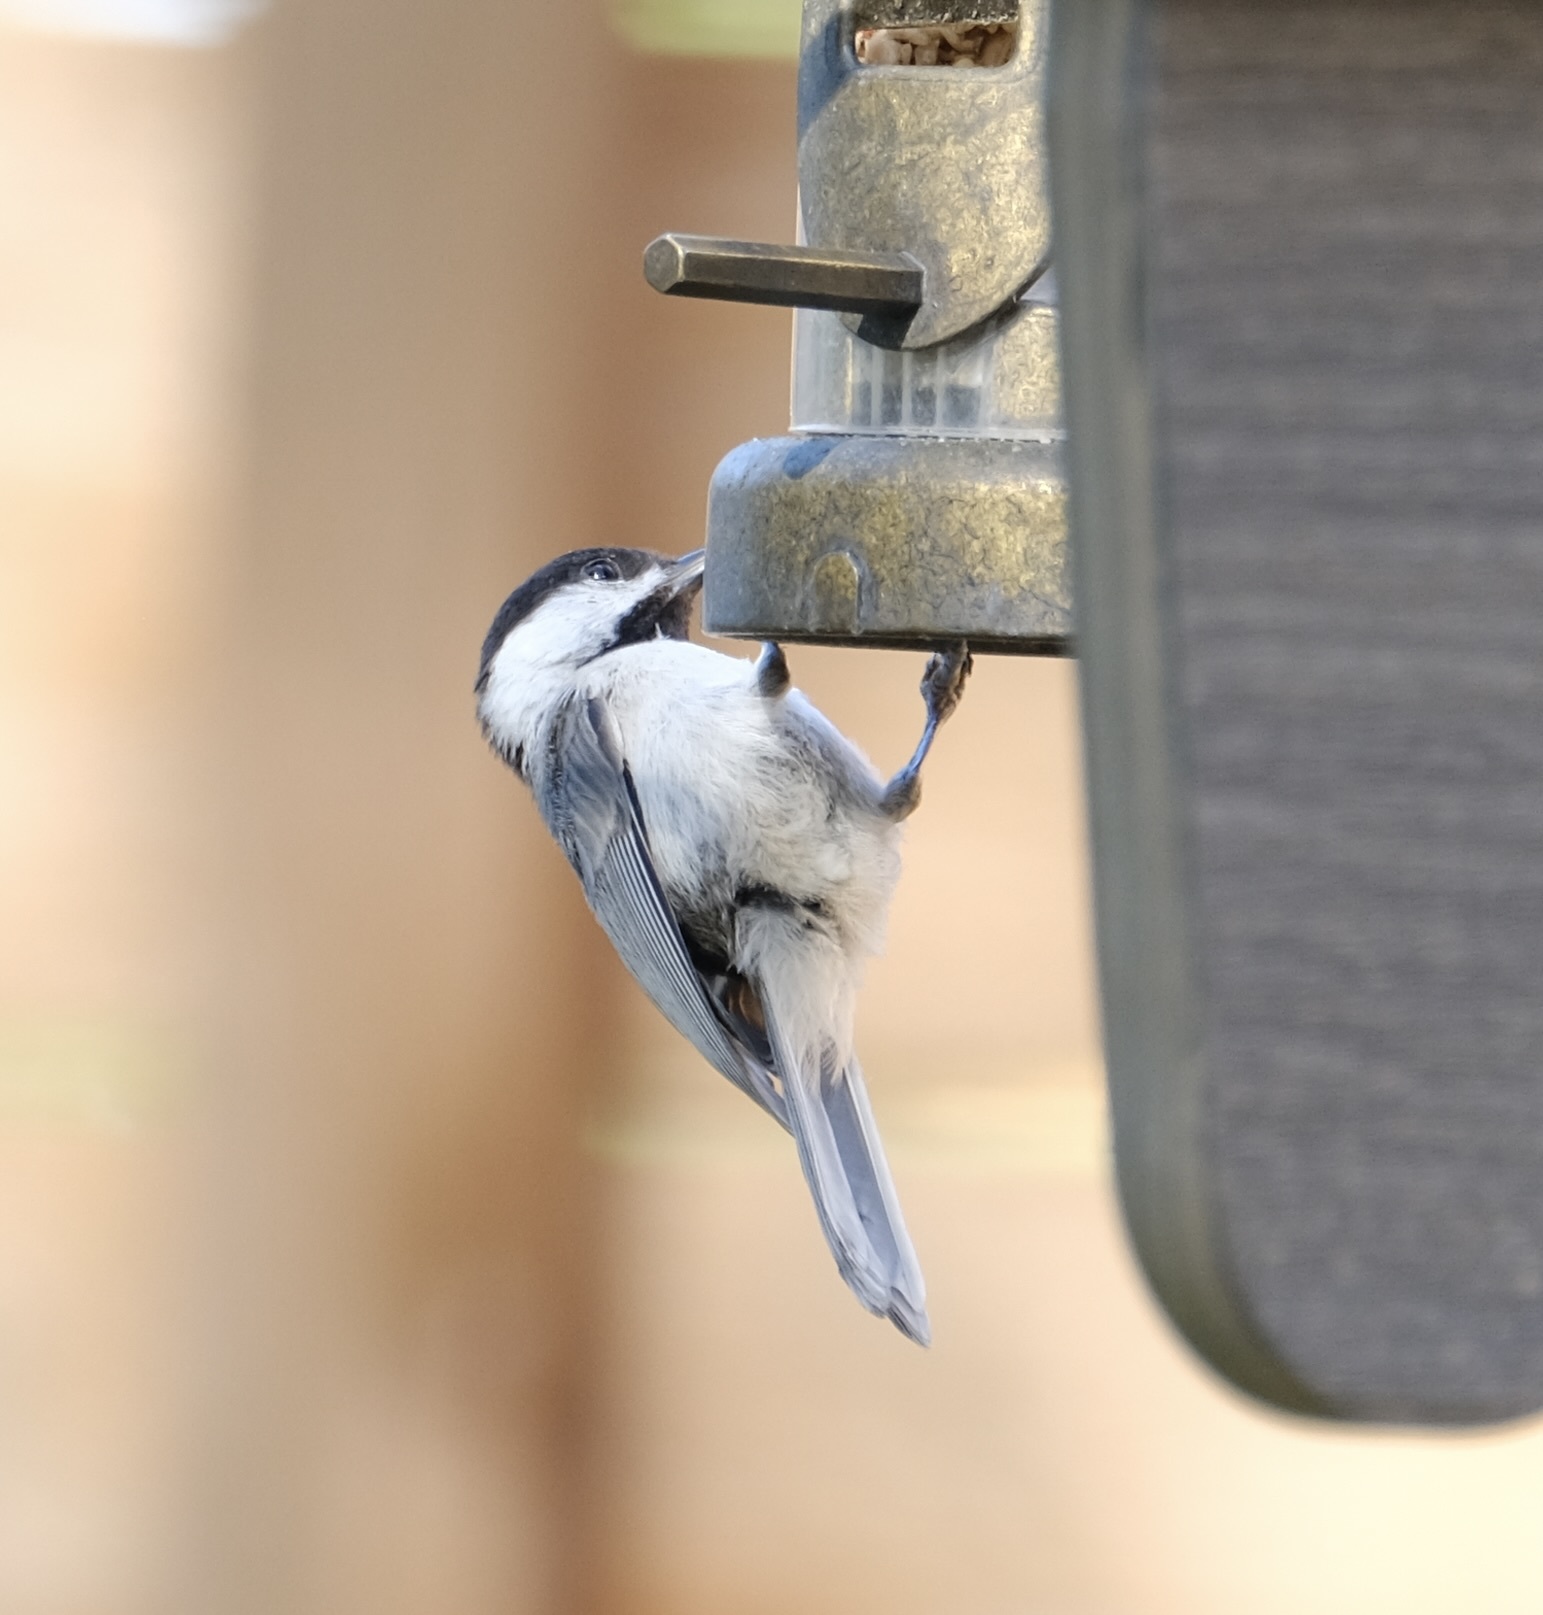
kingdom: Animalia
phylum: Chordata
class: Aves
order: Passeriformes
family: Paridae
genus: Poecile
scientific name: Poecile carolinensis
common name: Carolina chickadee
